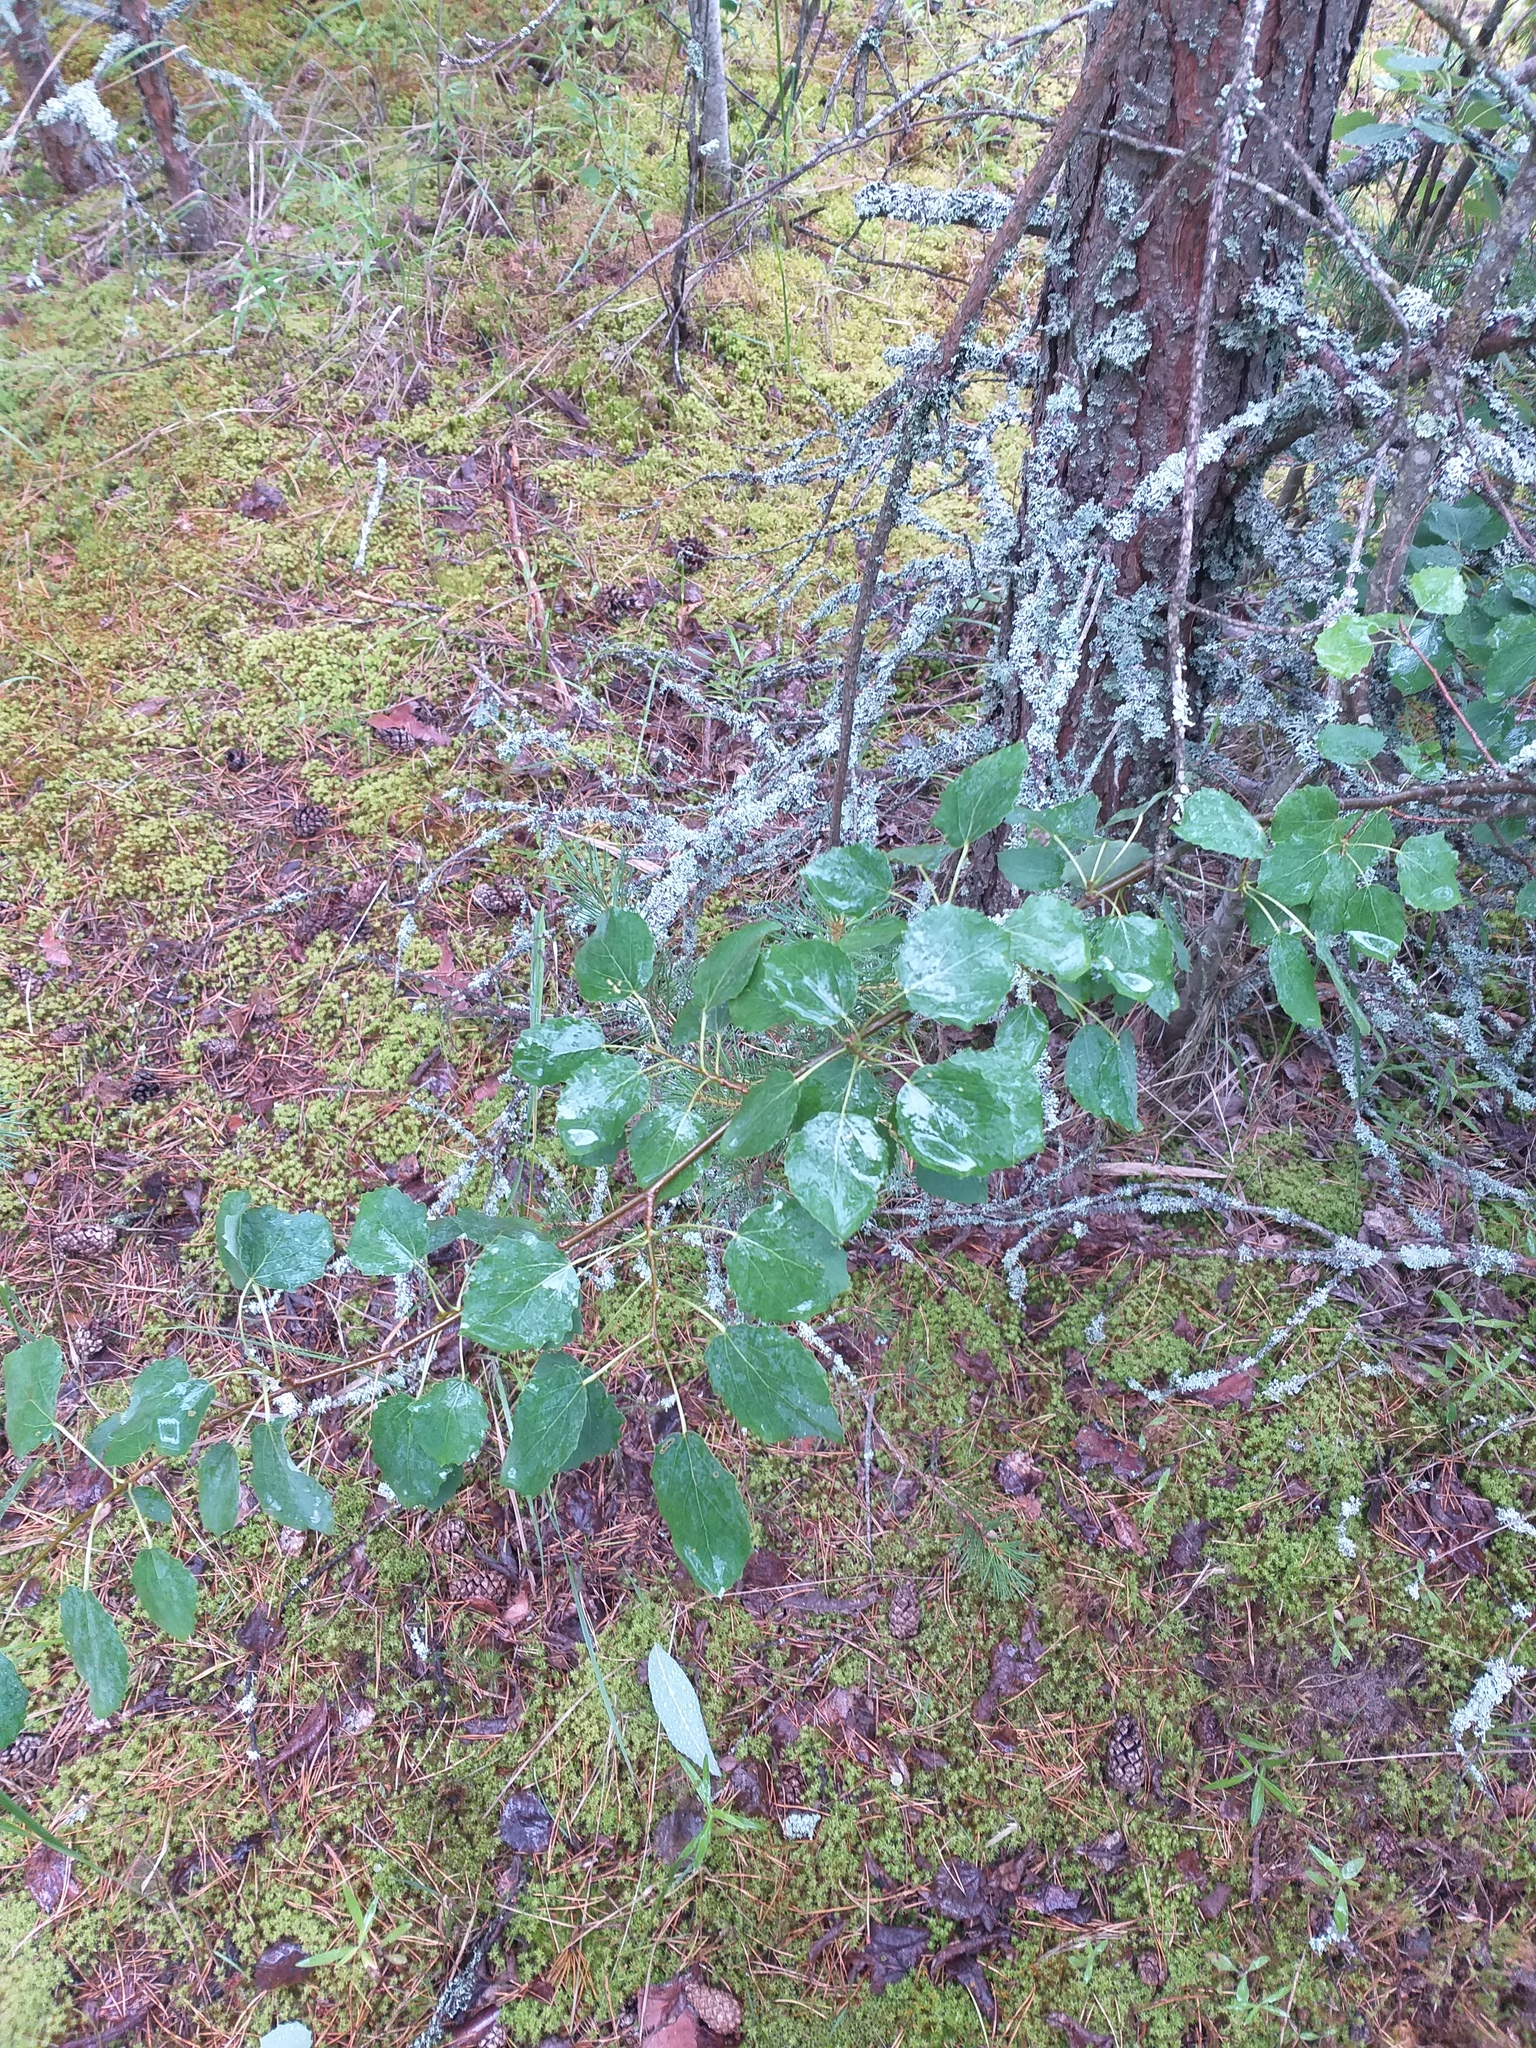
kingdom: Plantae
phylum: Tracheophyta
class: Magnoliopsida
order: Malpighiales
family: Salicaceae
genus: Populus
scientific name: Populus tremula
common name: European aspen
